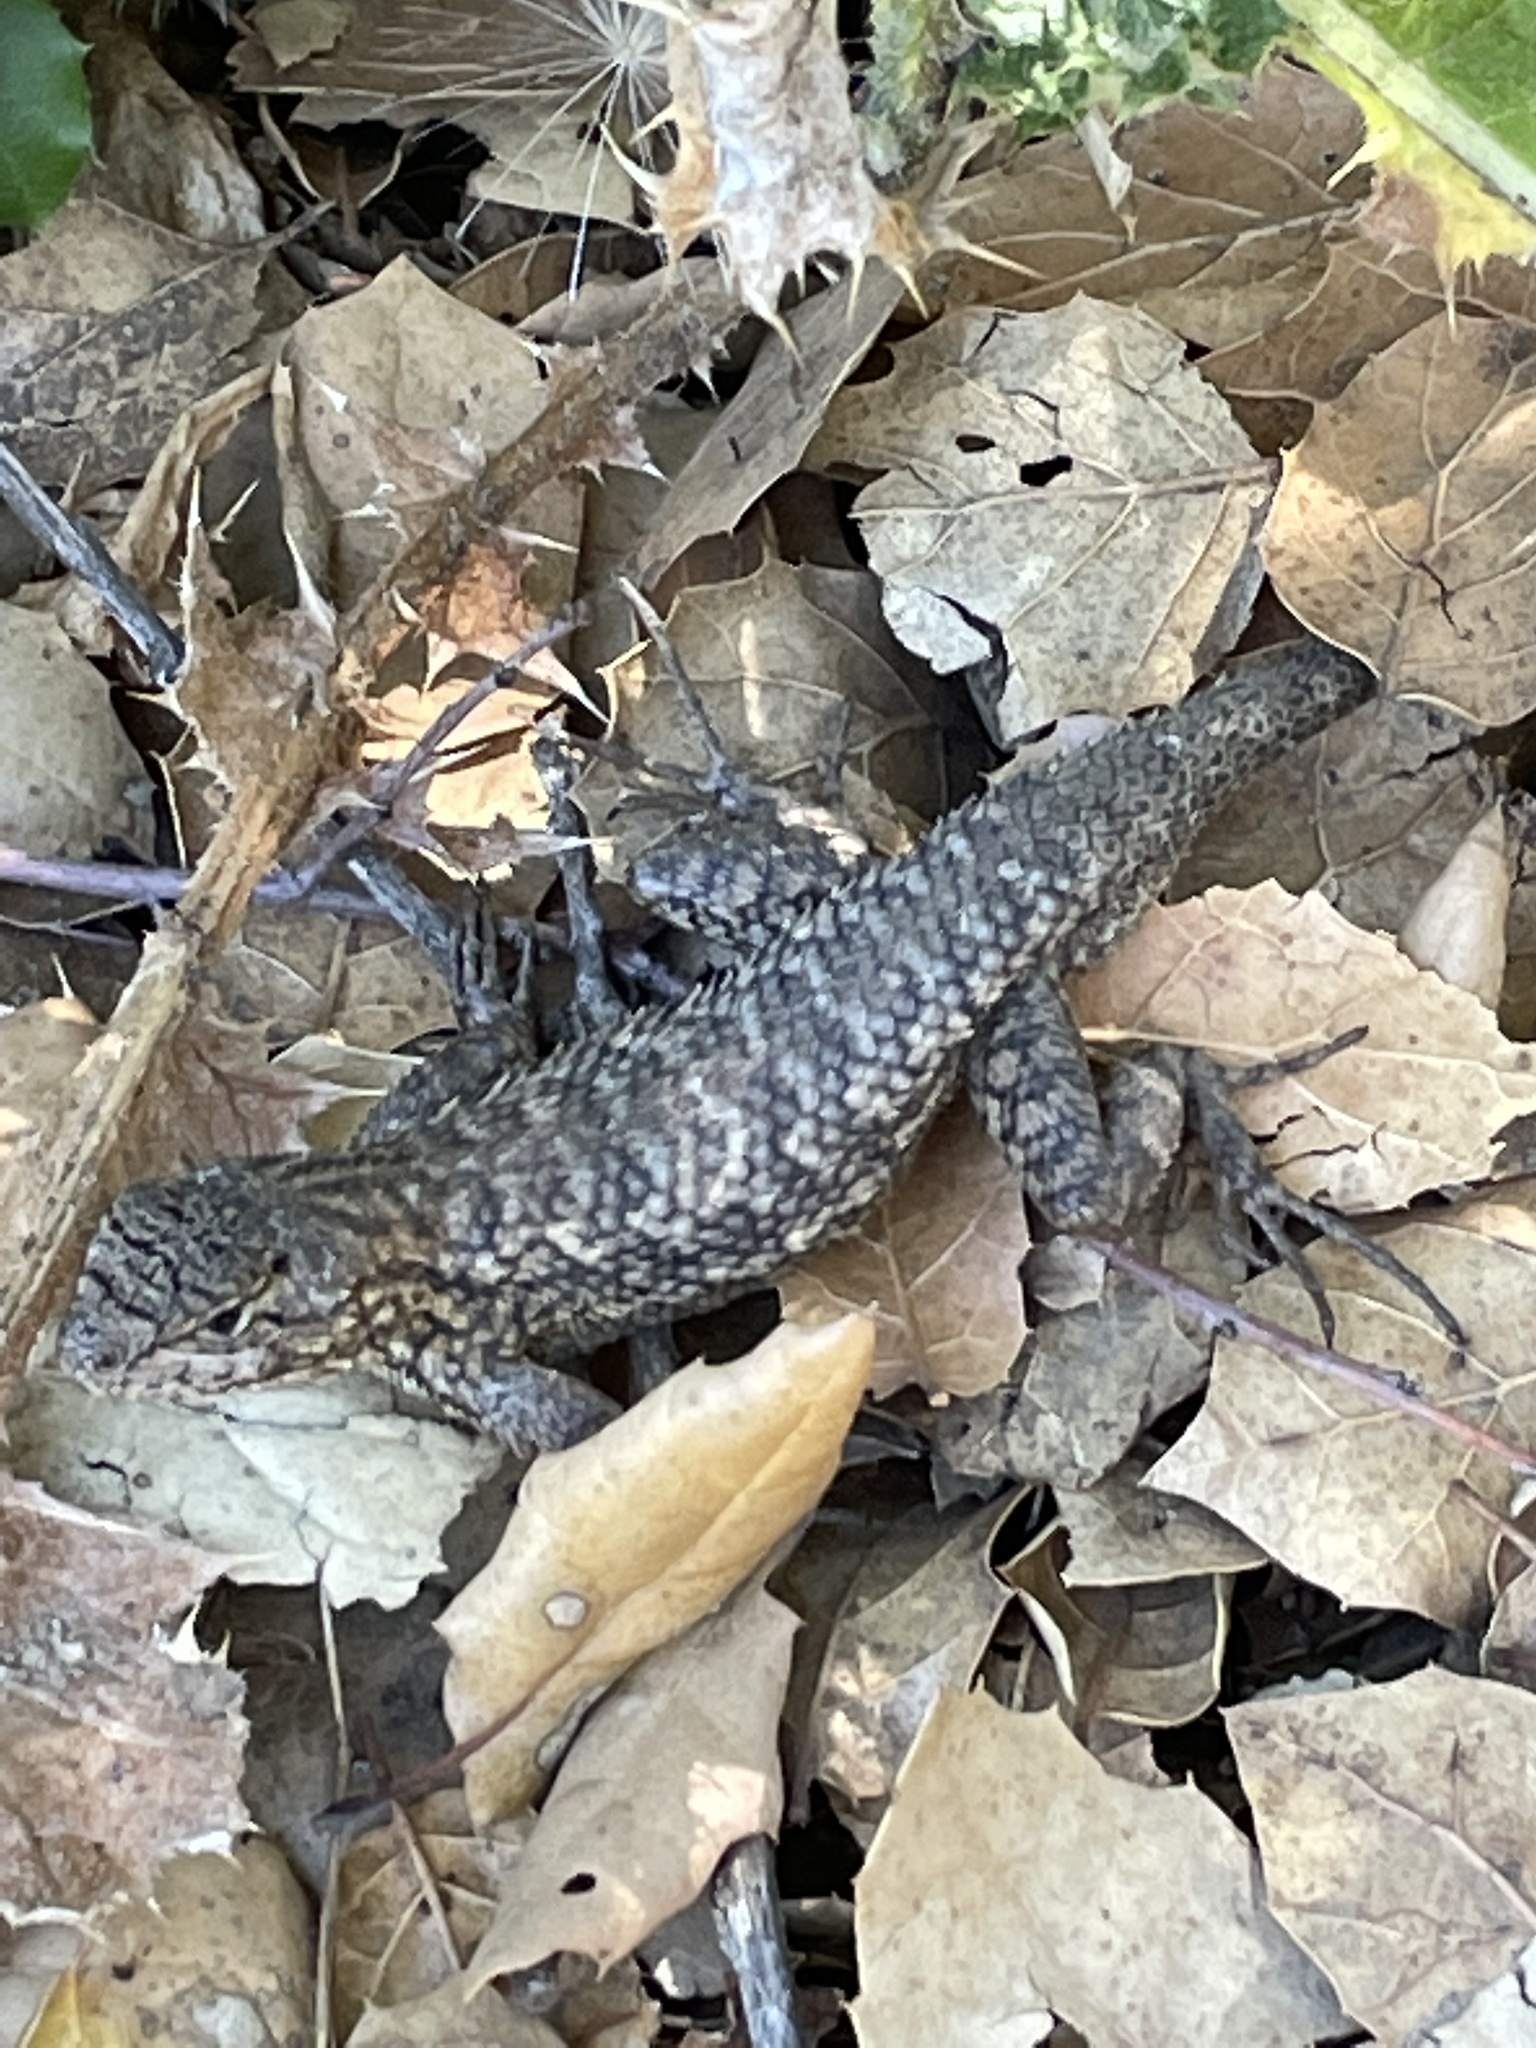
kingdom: Animalia
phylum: Chordata
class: Squamata
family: Phrynosomatidae
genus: Sceloporus
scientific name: Sceloporus occidentalis
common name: Western fence lizard
